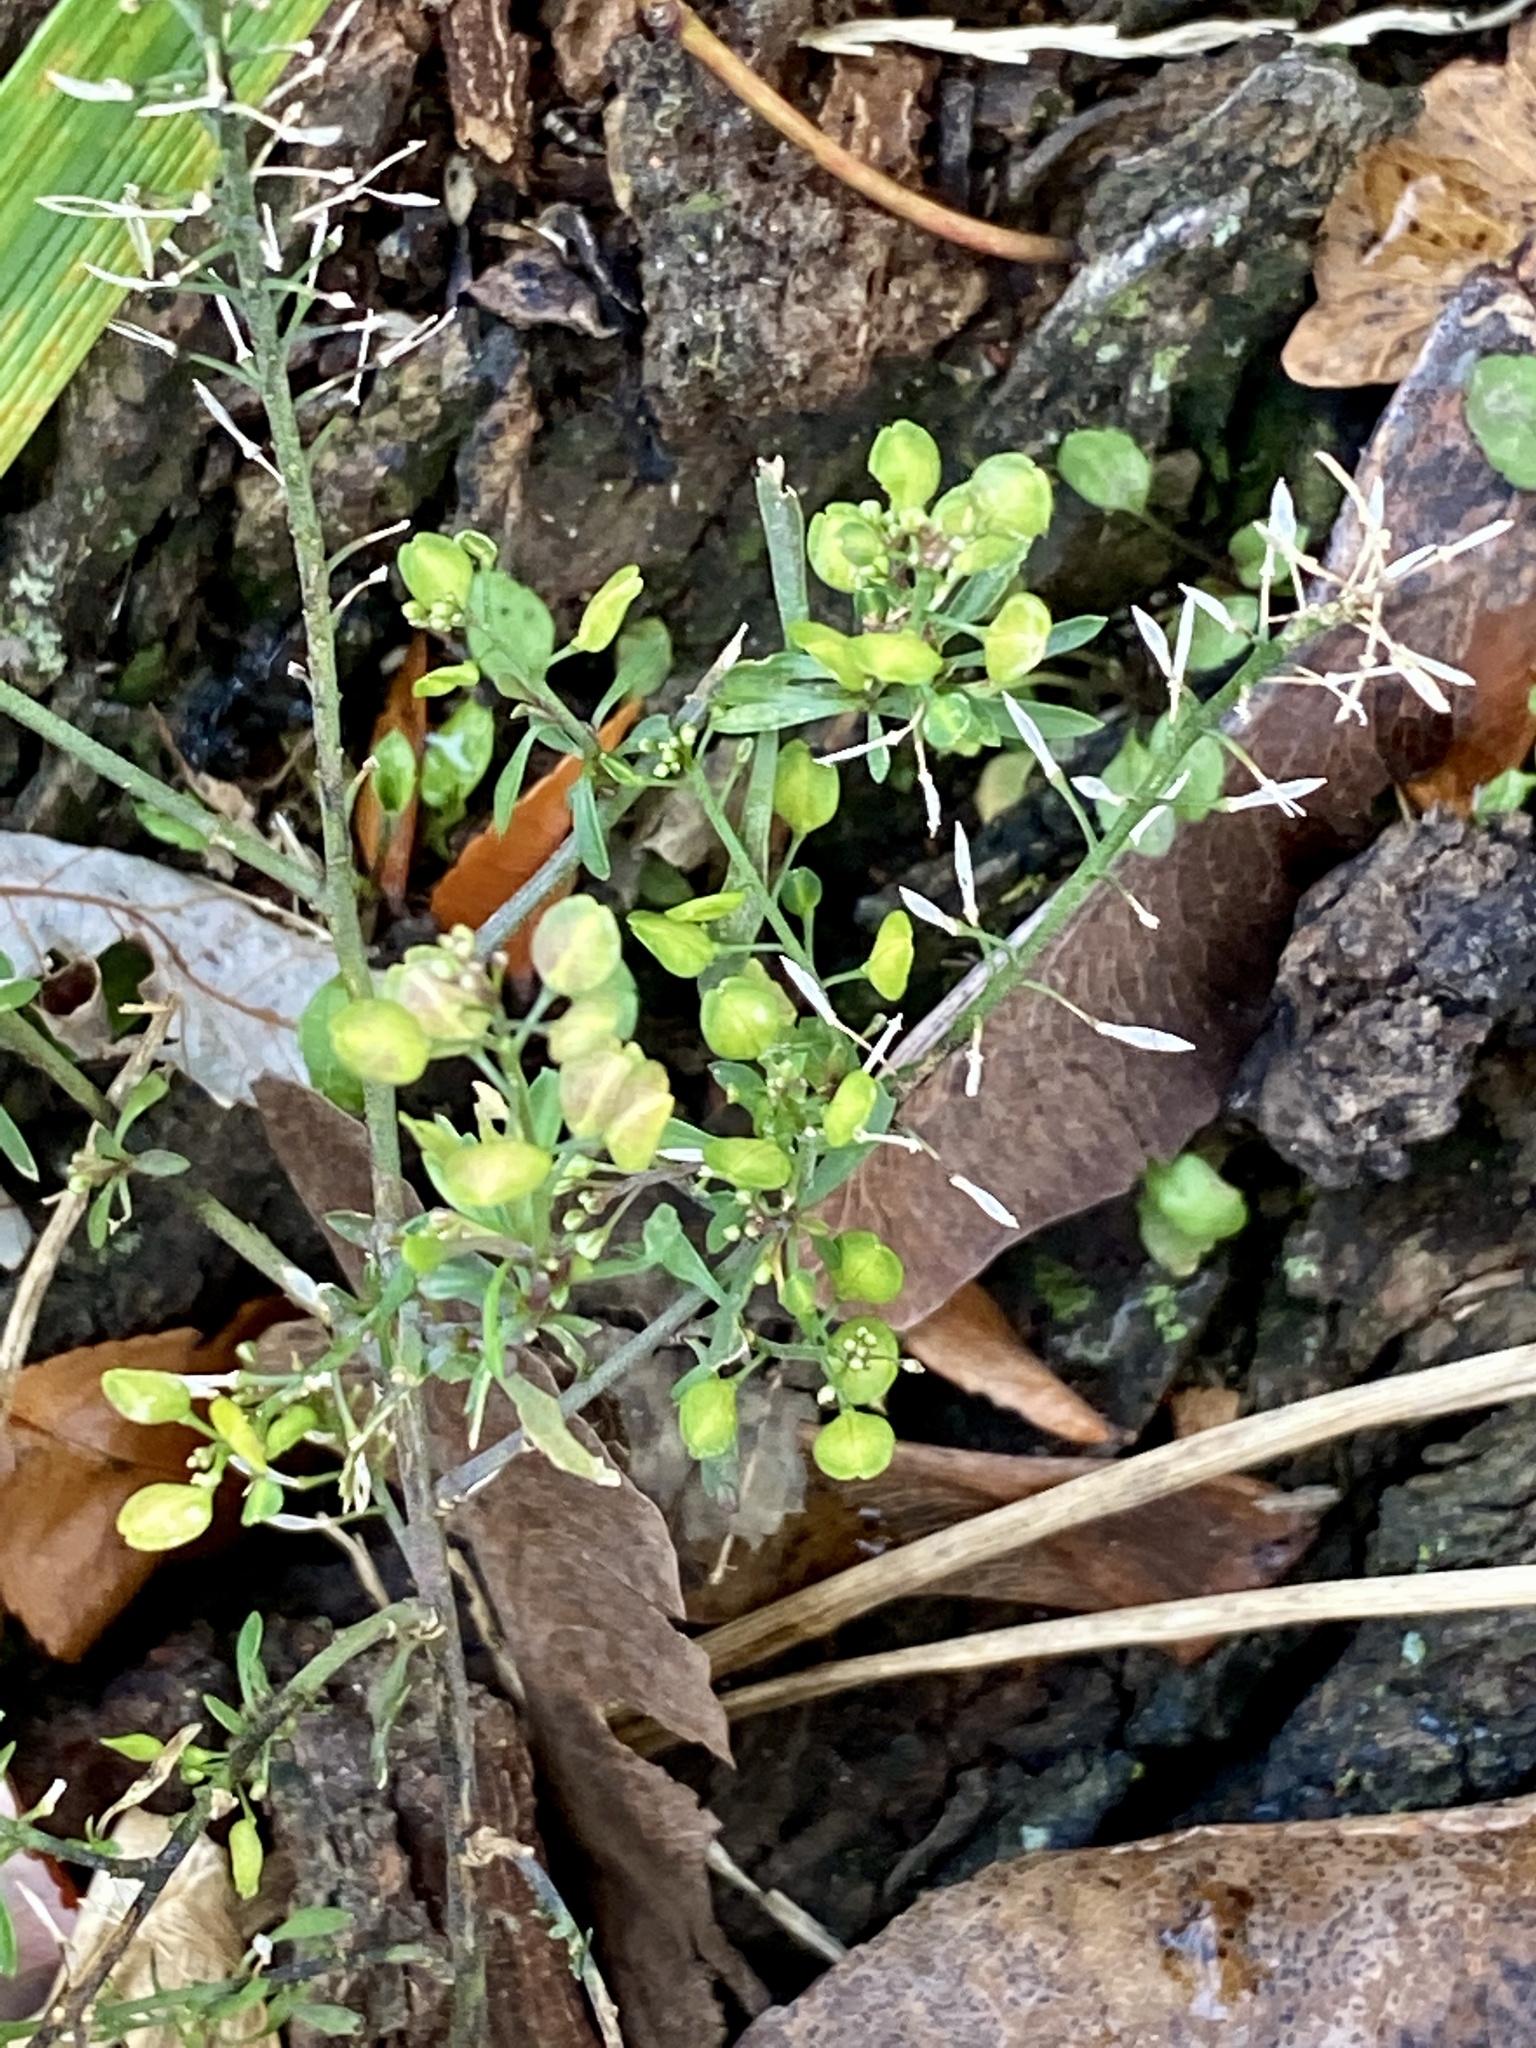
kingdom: Plantae
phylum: Tracheophyta
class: Magnoliopsida
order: Brassicales
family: Brassicaceae
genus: Lepidium
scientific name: Lepidium virginicum
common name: Least pepperwort
